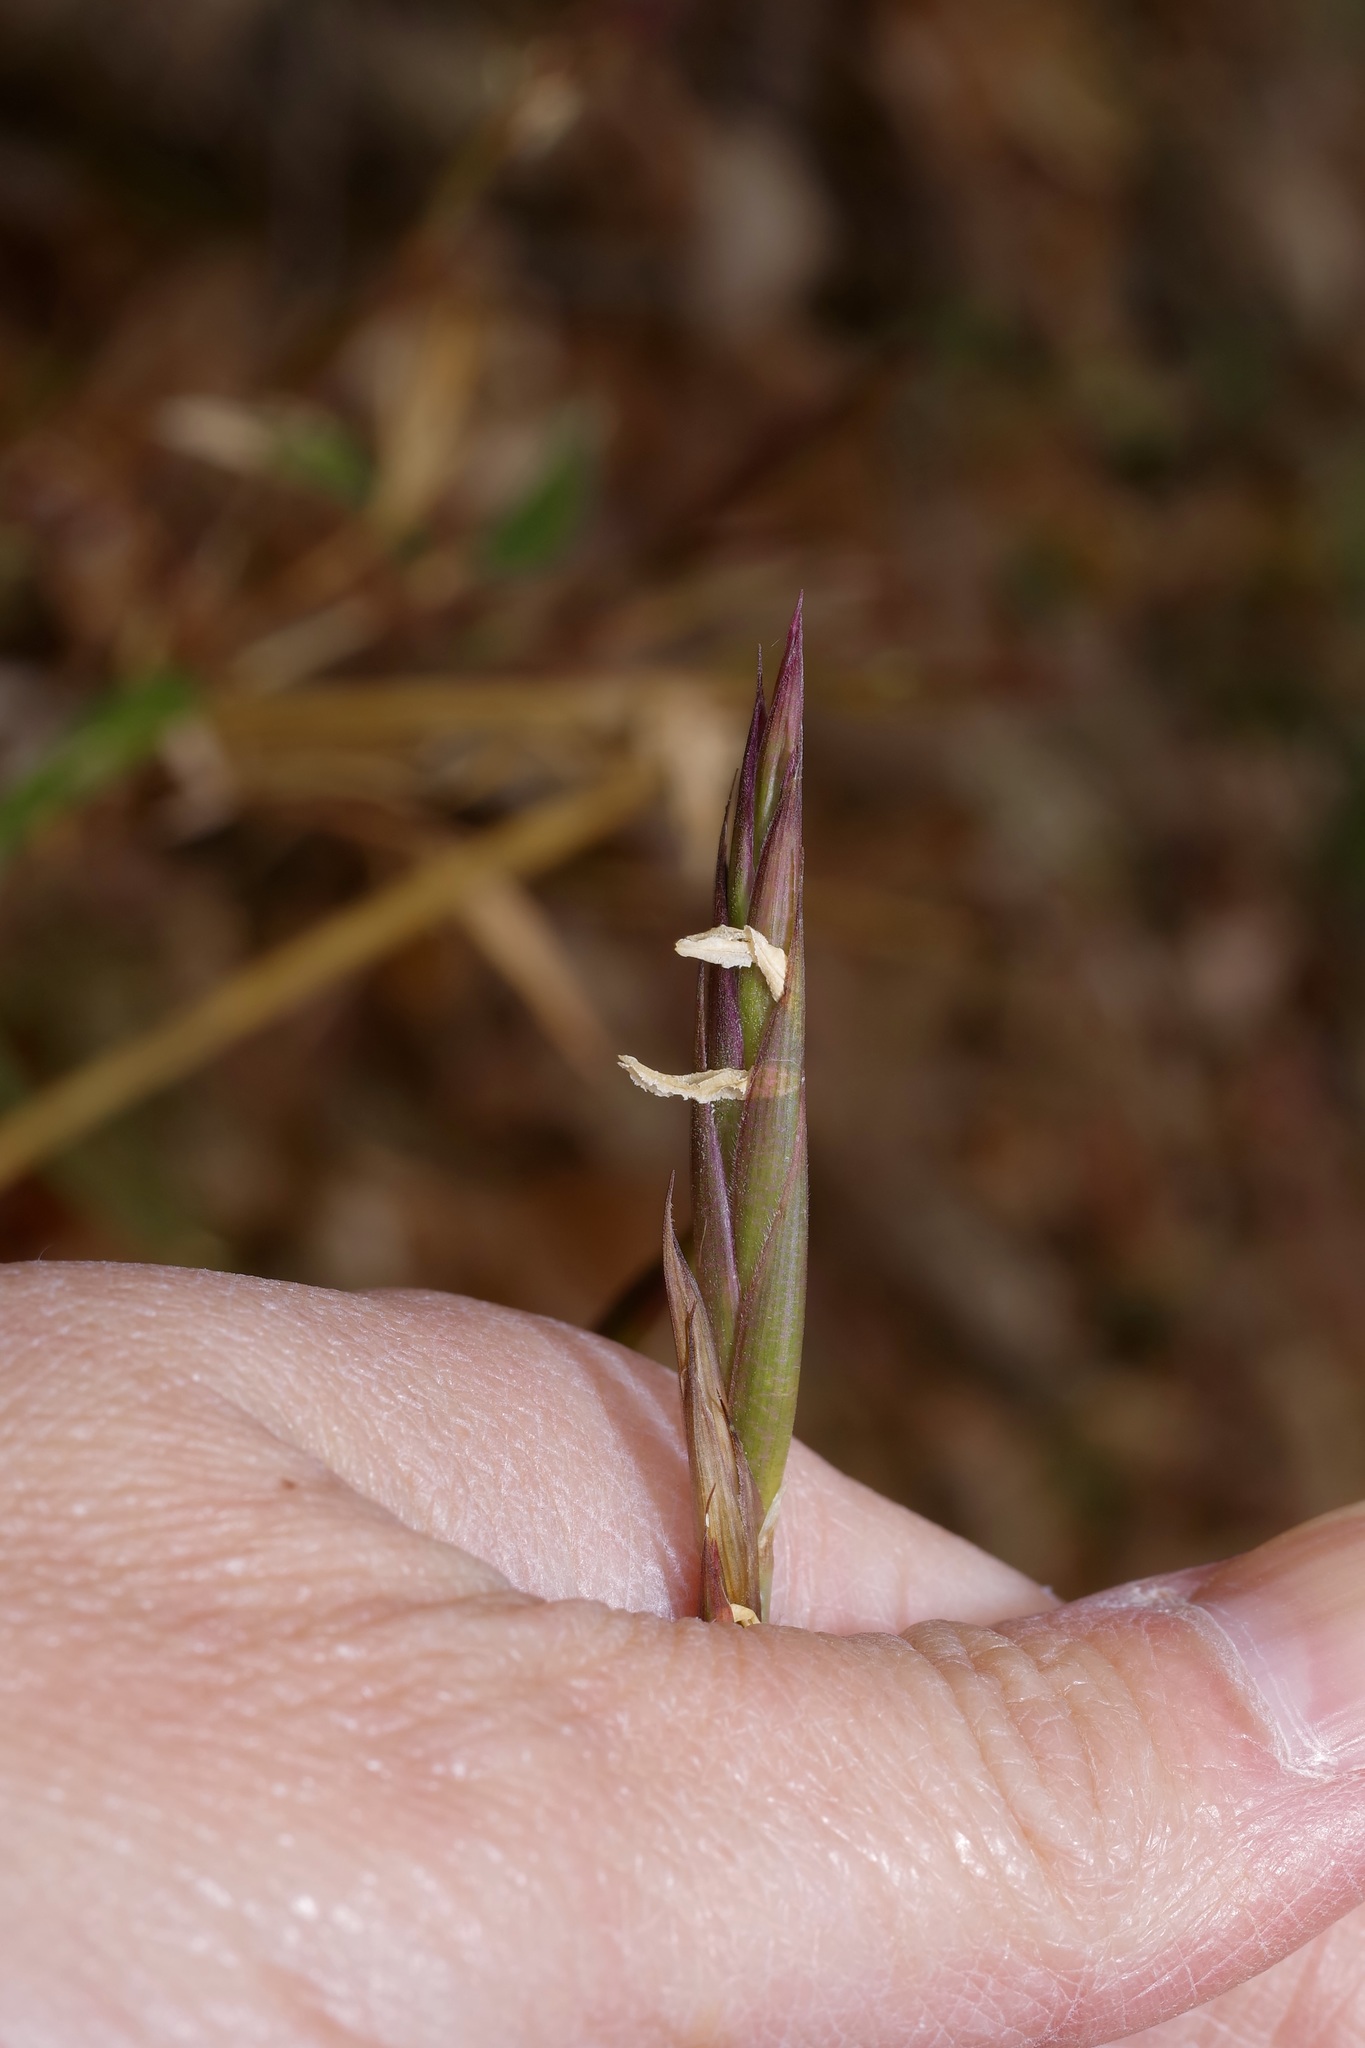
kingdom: Plantae
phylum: Tracheophyta
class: Liliopsida
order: Poales
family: Poaceae
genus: Arundinaria
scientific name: Arundinaria gigantea
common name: Giant cane
